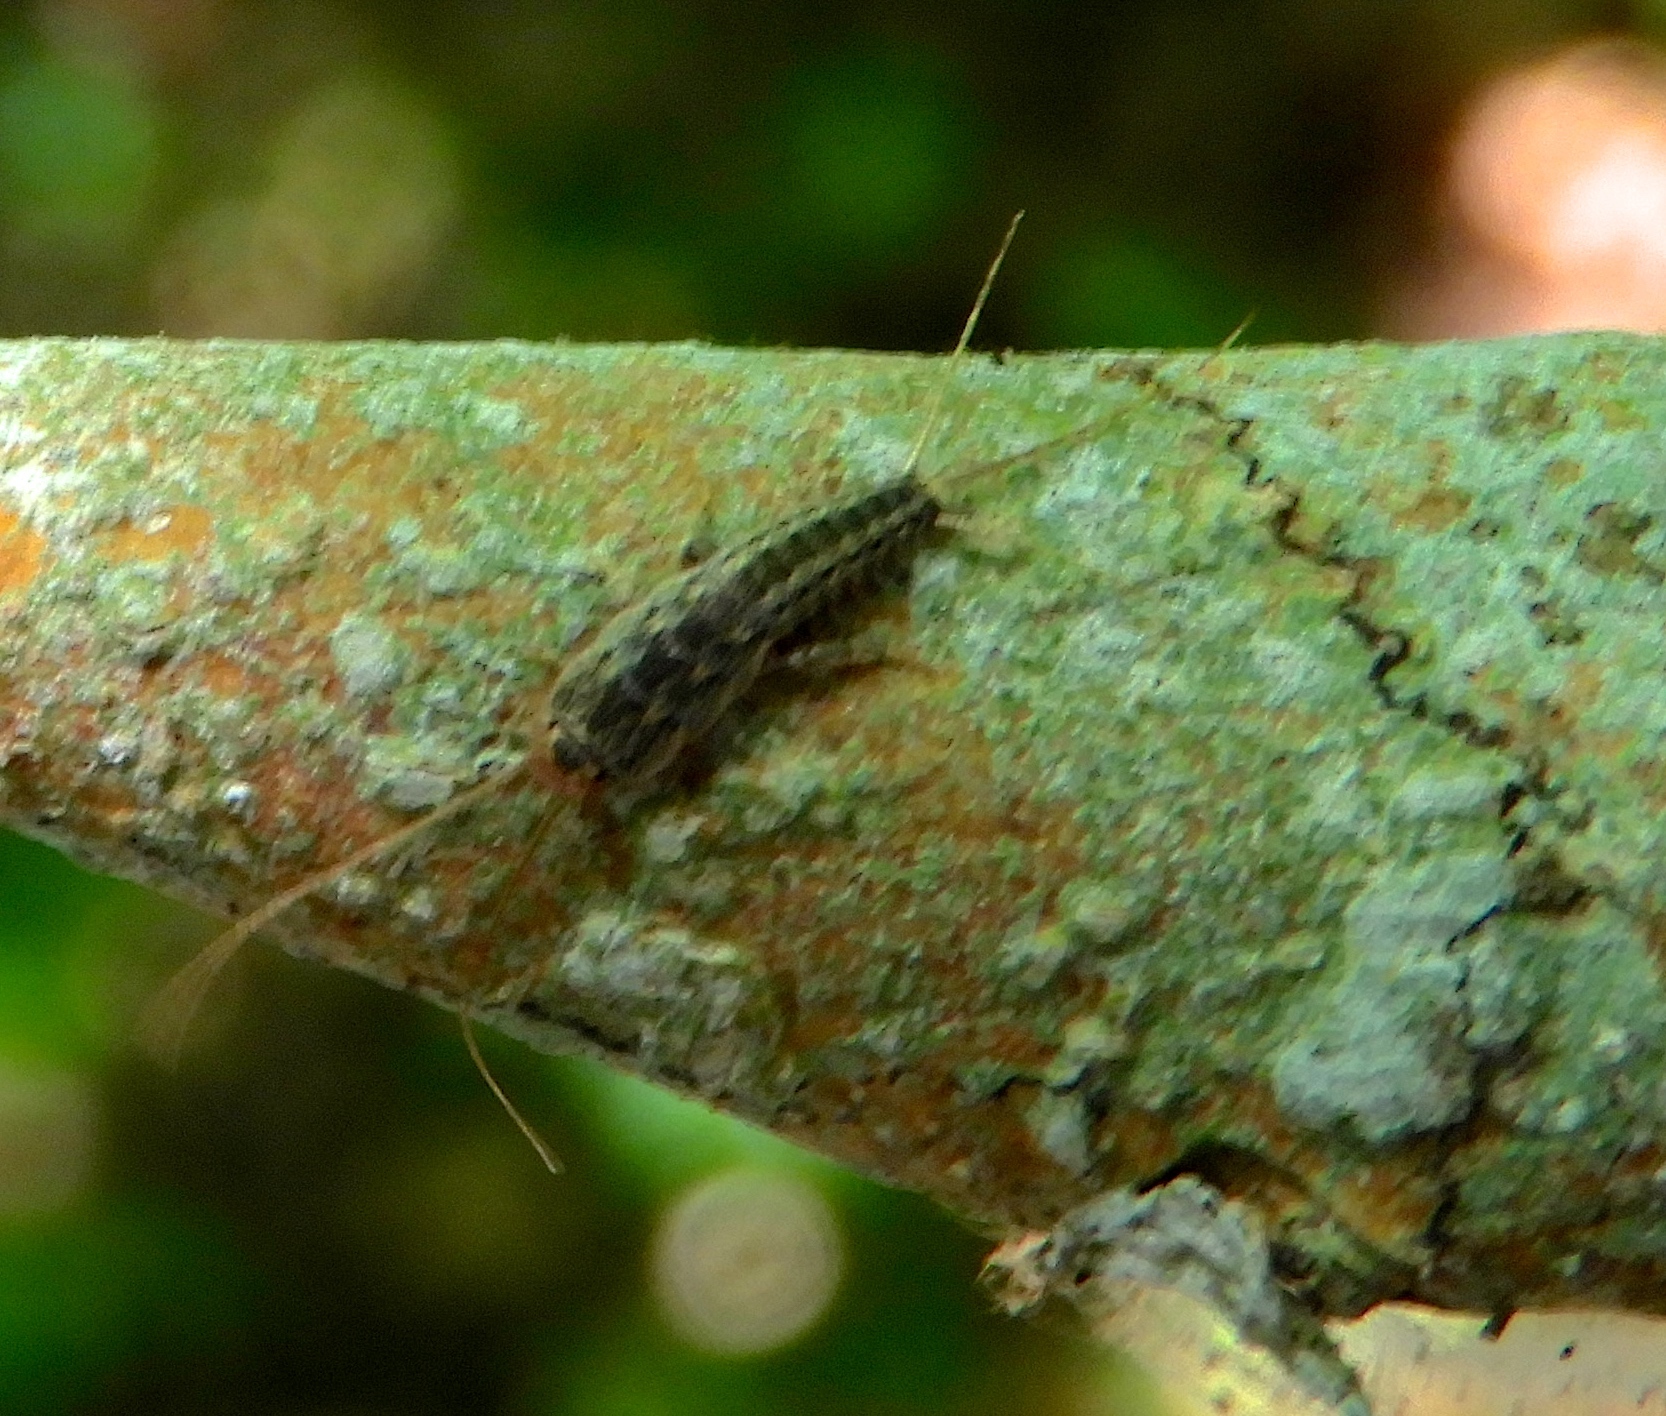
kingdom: Animalia
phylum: Arthropoda
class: Insecta
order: Zygentoma
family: Lepismatidae
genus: Ctenolepisma
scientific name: Ctenolepisma lineata
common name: Four-lined silverfish
